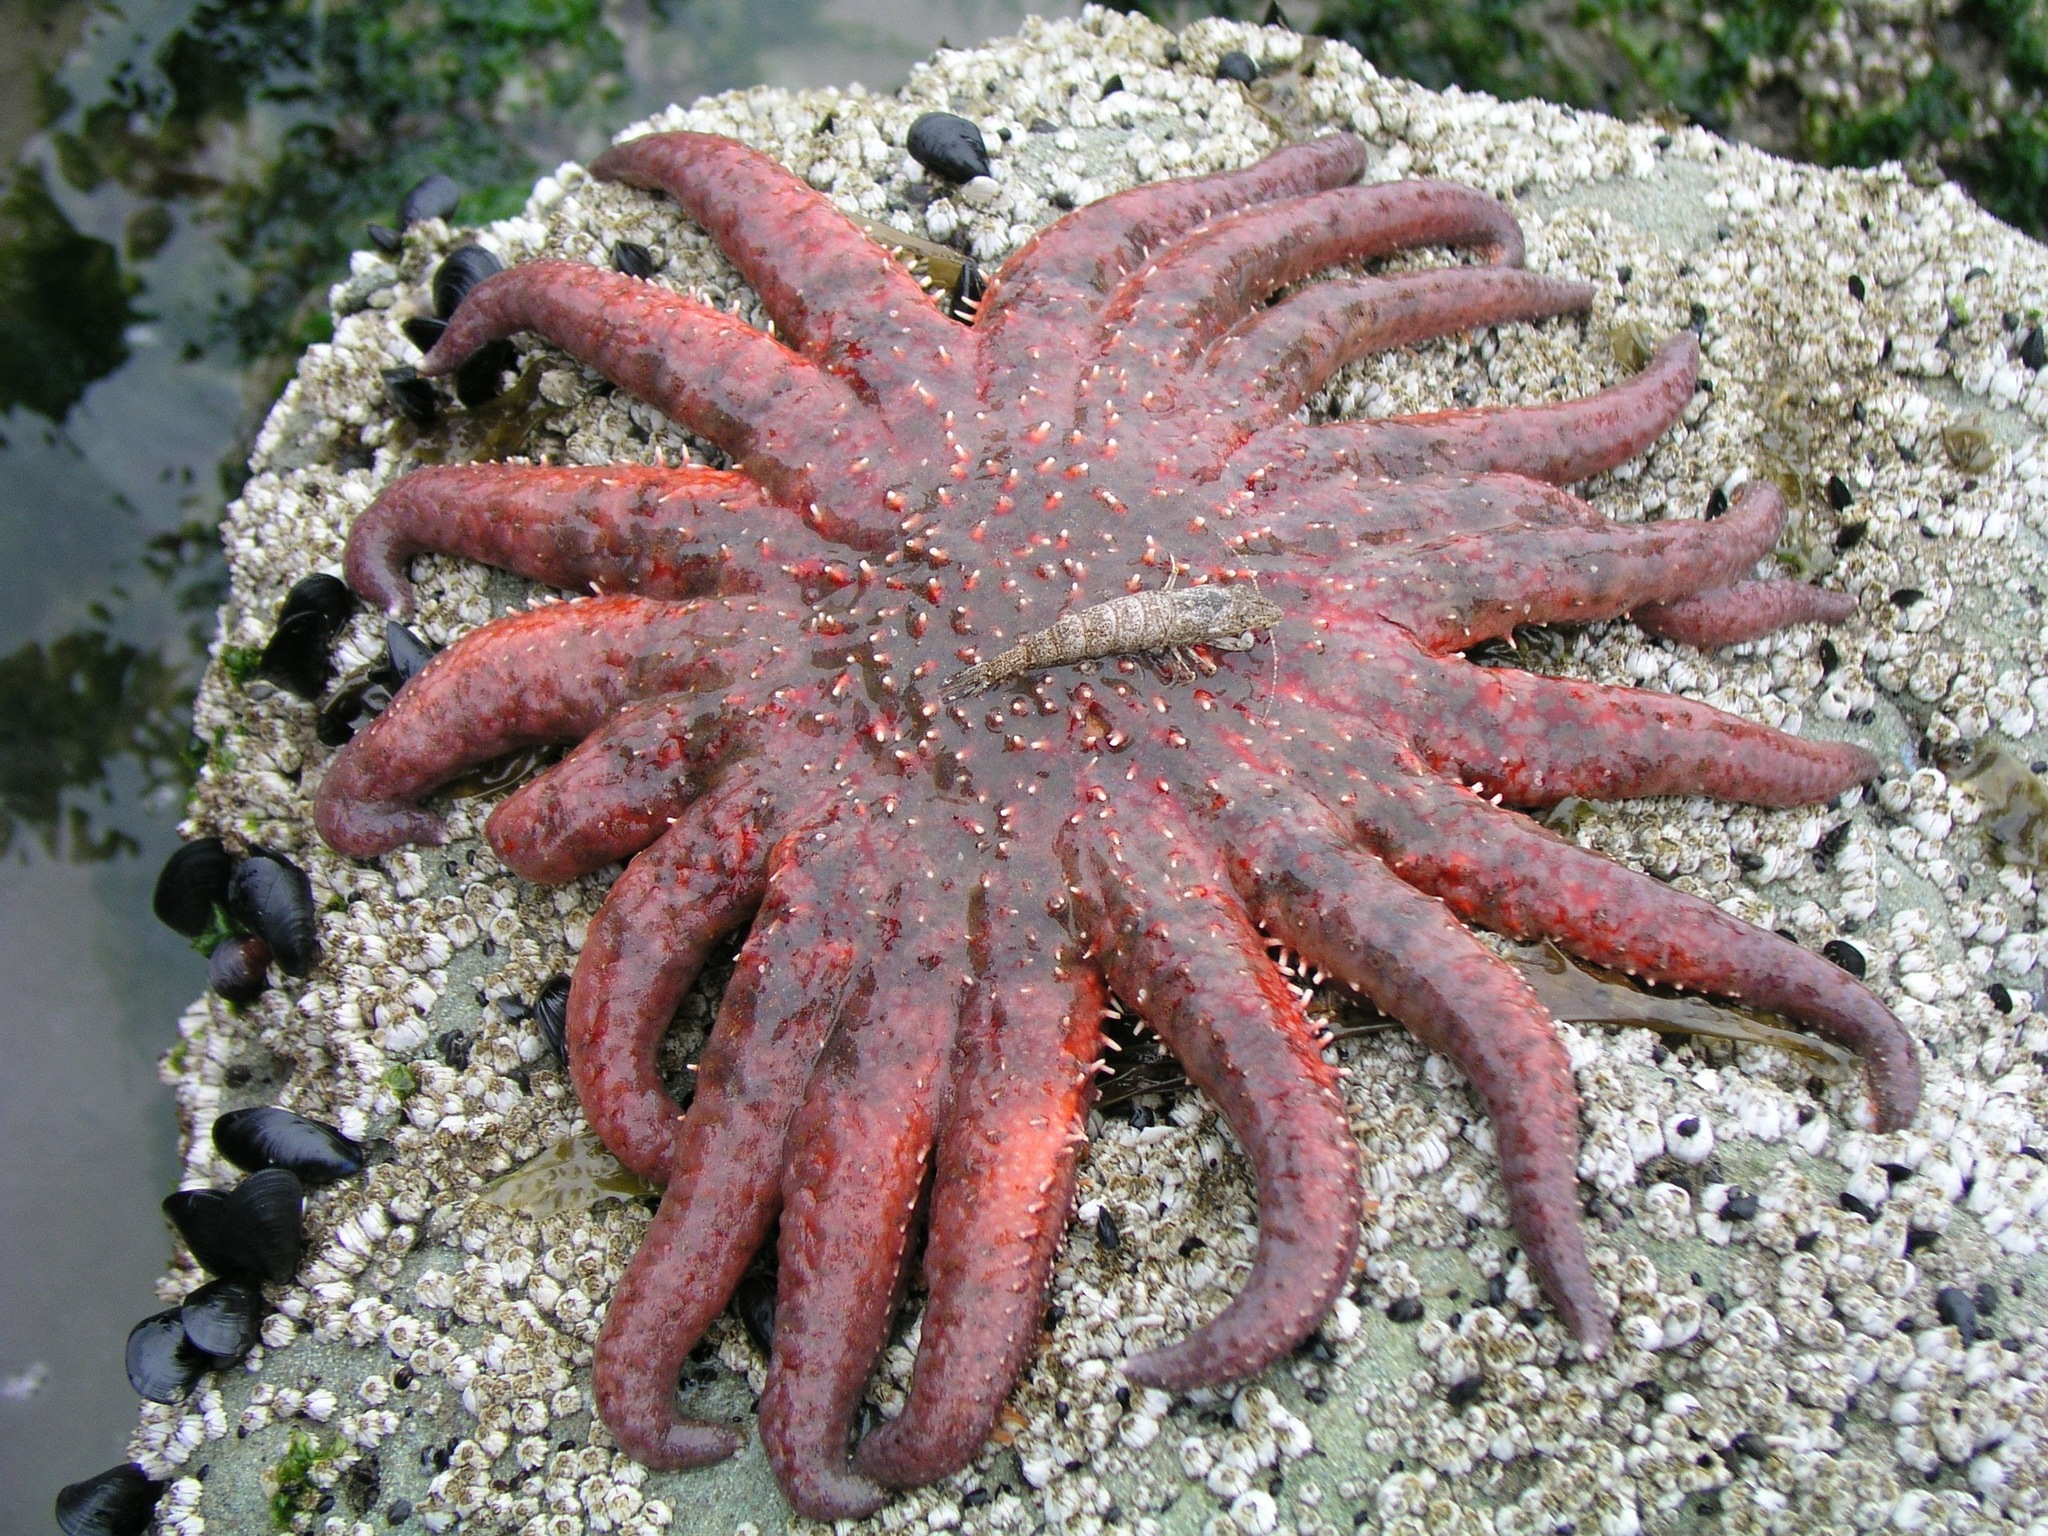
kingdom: Animalia
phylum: Echinodermata
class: Asteroidea
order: Forcipulatida
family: Asteriidae
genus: Pycnopodia
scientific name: Pycnopodia helianthoides
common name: Rag mop
